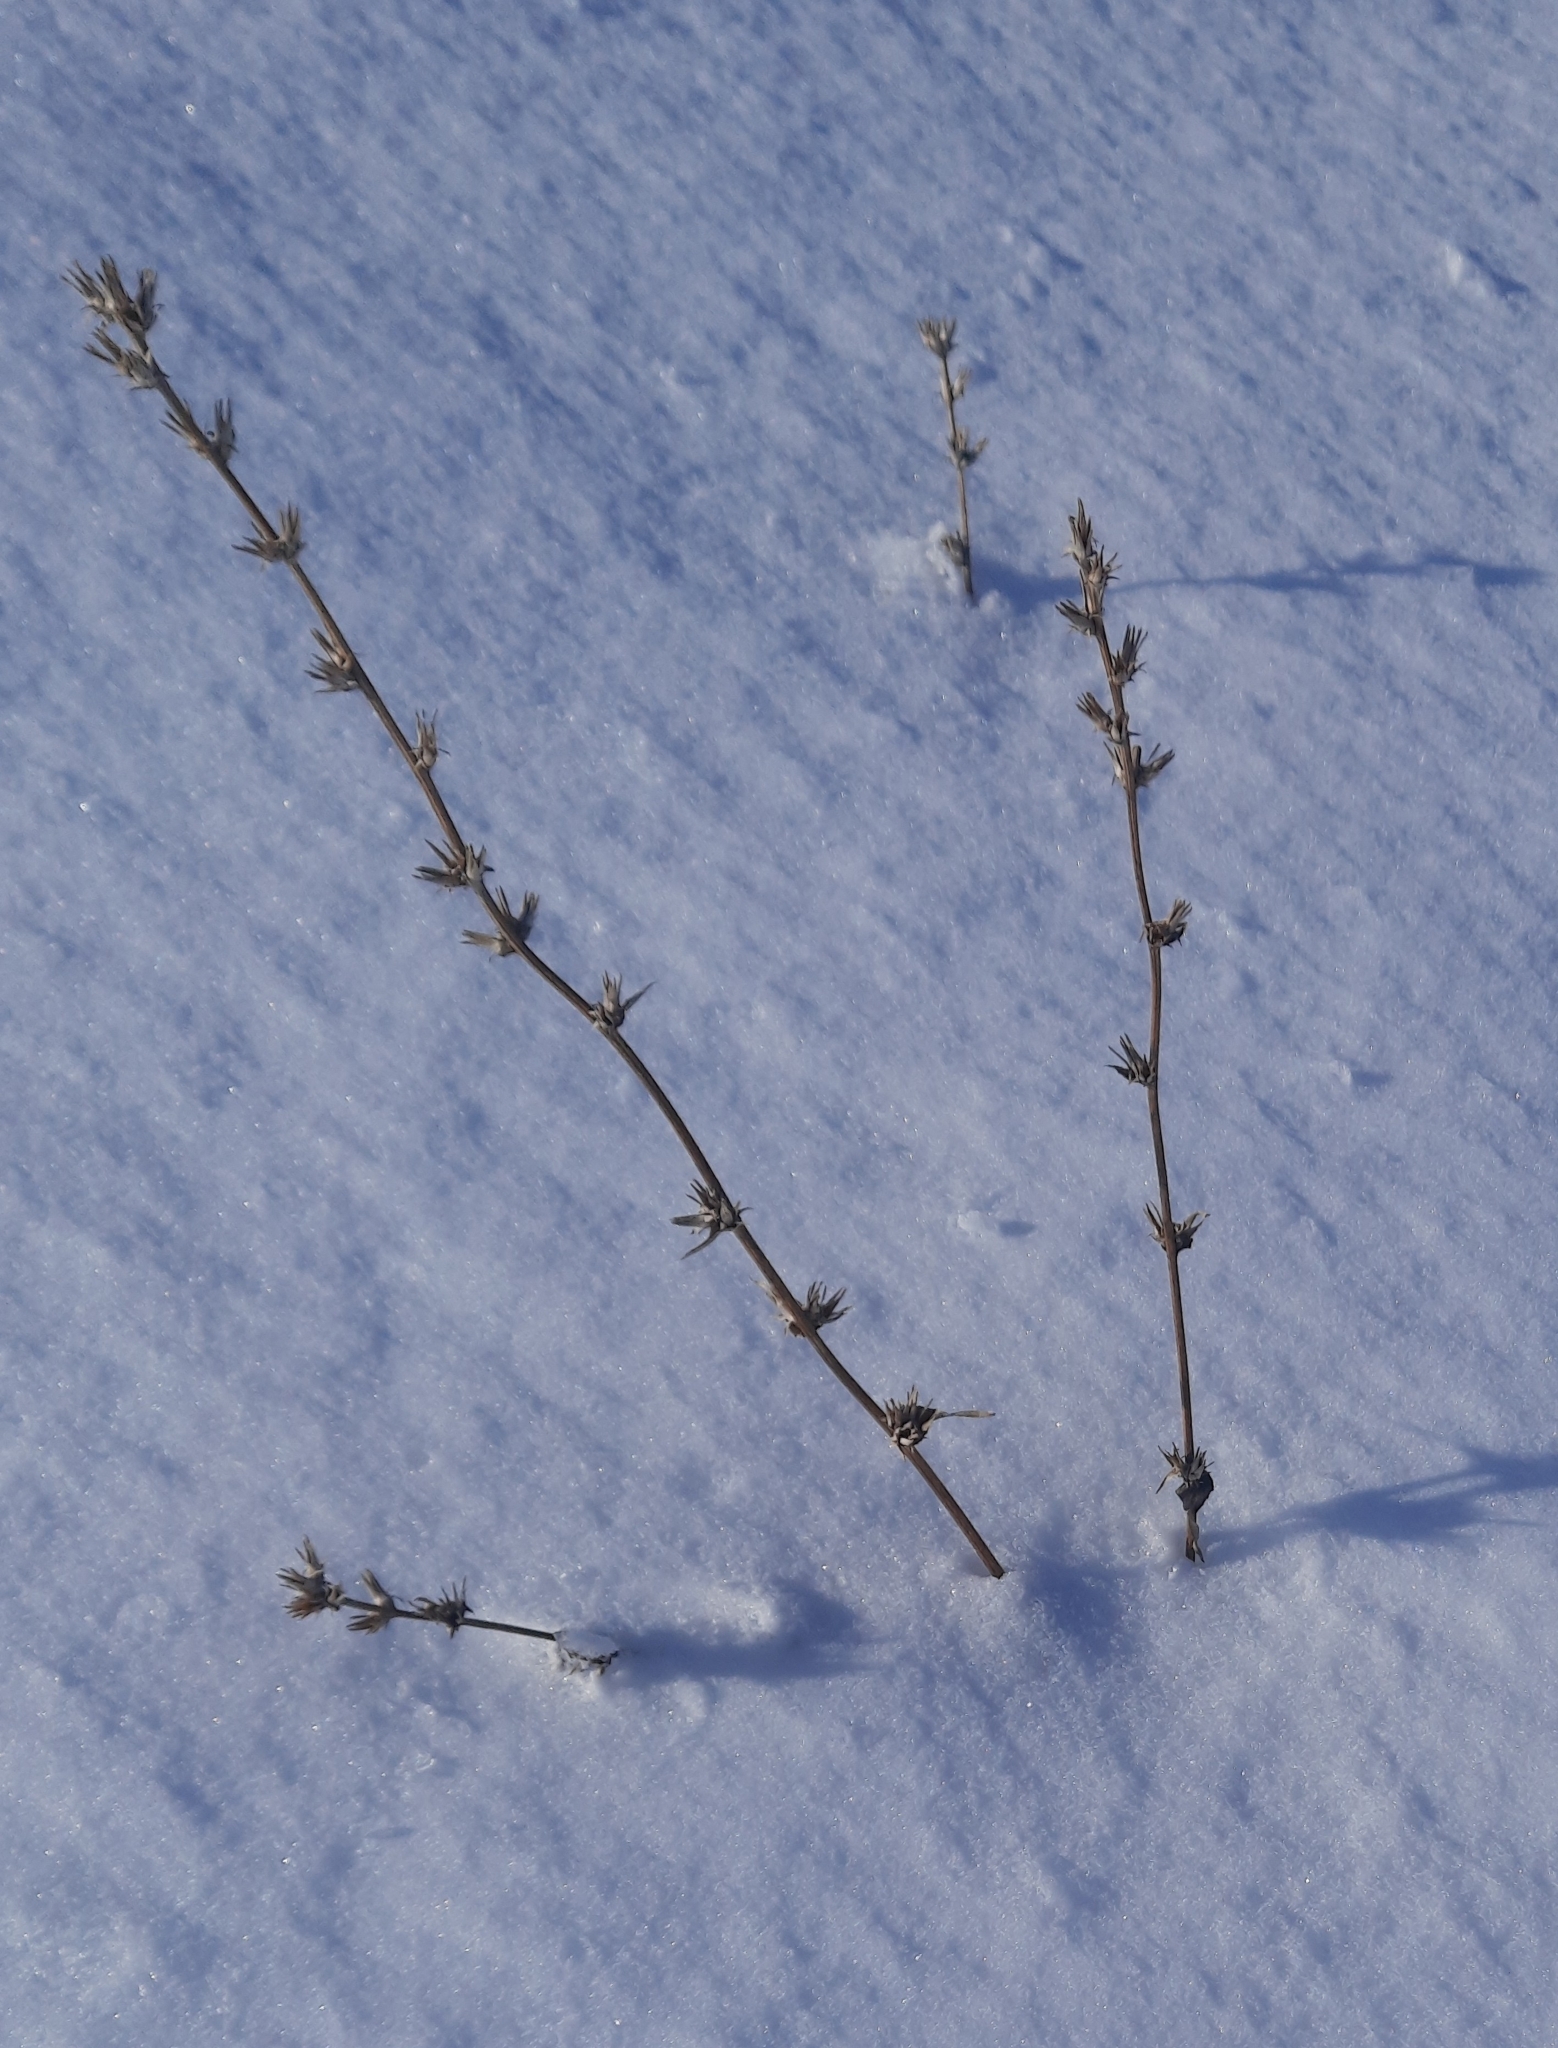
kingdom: Plantae
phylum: Tracheophyta
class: Magnoliopsida
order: Asterales
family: Asteraceae
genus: Cichorium
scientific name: Cichorium intybus
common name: Chicory
